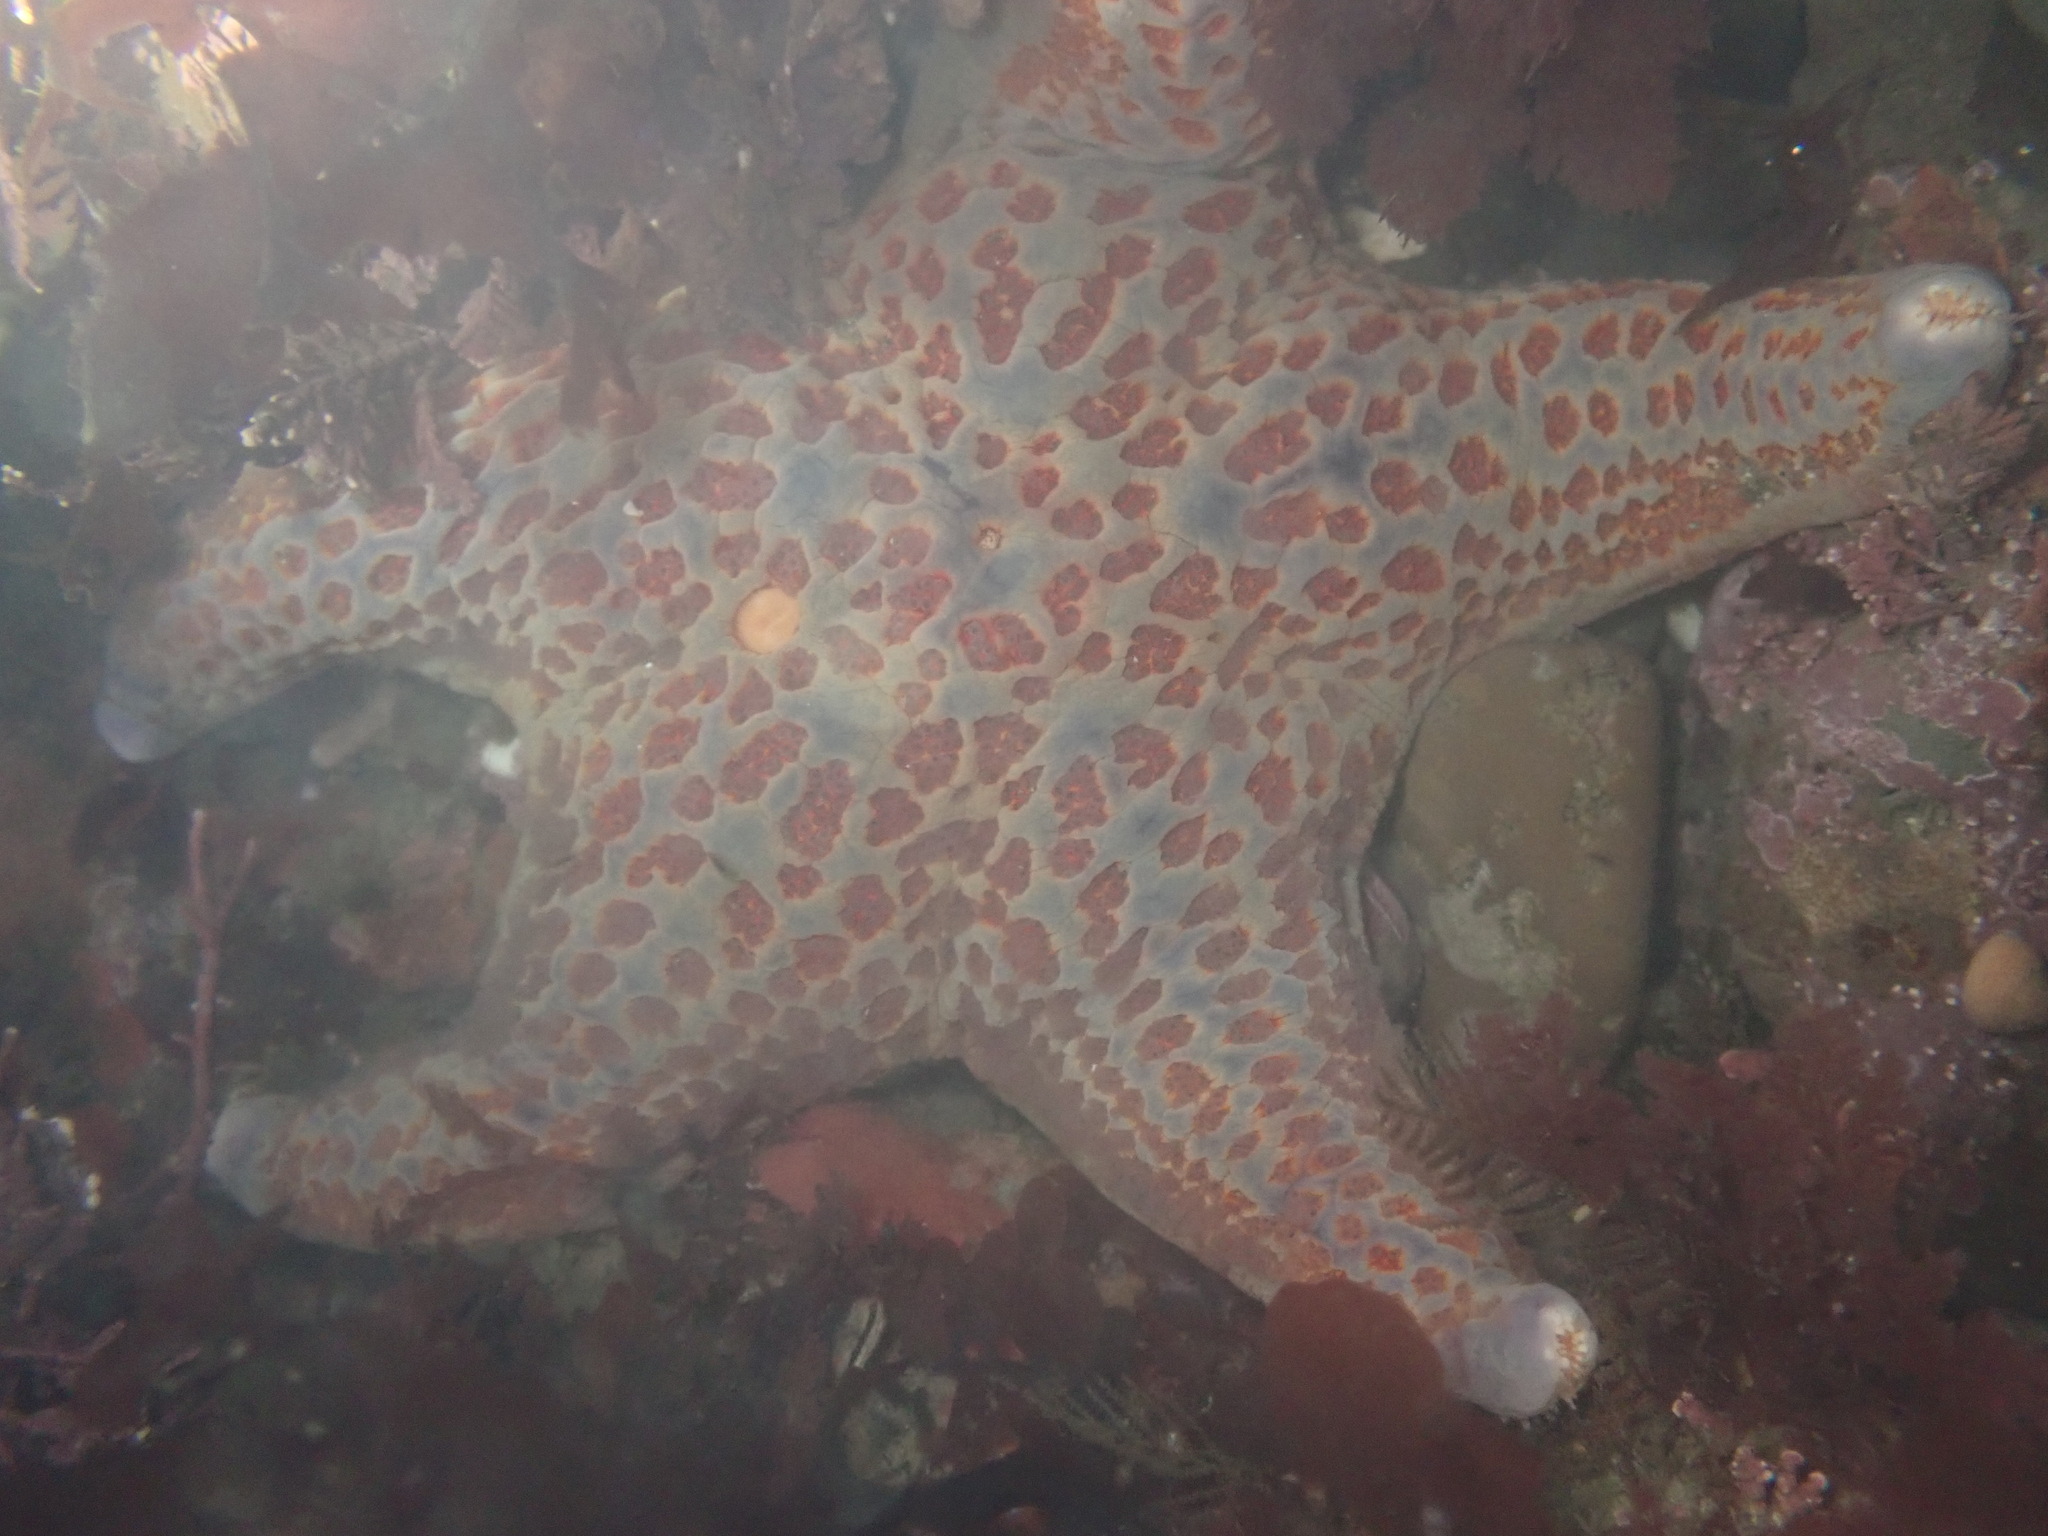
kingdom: Animalia
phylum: Echinodermata
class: Asteroidea
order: Valvatida
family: Asteropseidae
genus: Dermasterias
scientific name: Dermasterias imbricata
